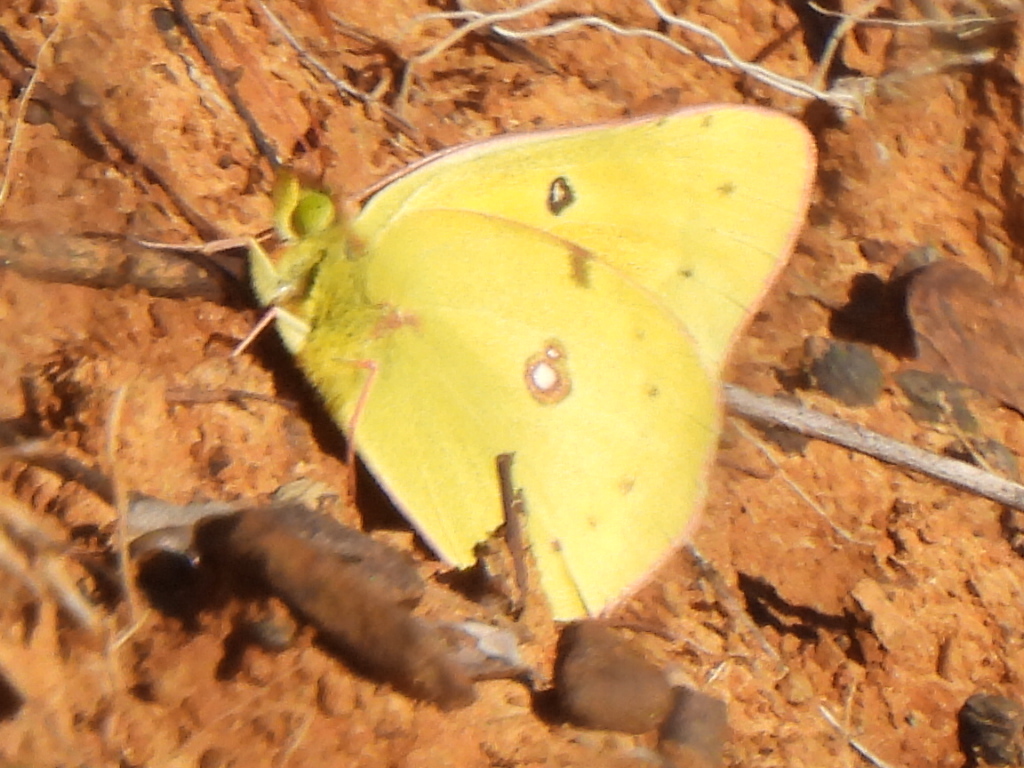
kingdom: Animalia
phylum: Arthropoda
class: Insecta
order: Lepidoptera
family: Pieridae
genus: Colias
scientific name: Colias eurytheme
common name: Alfalfa butterfly
